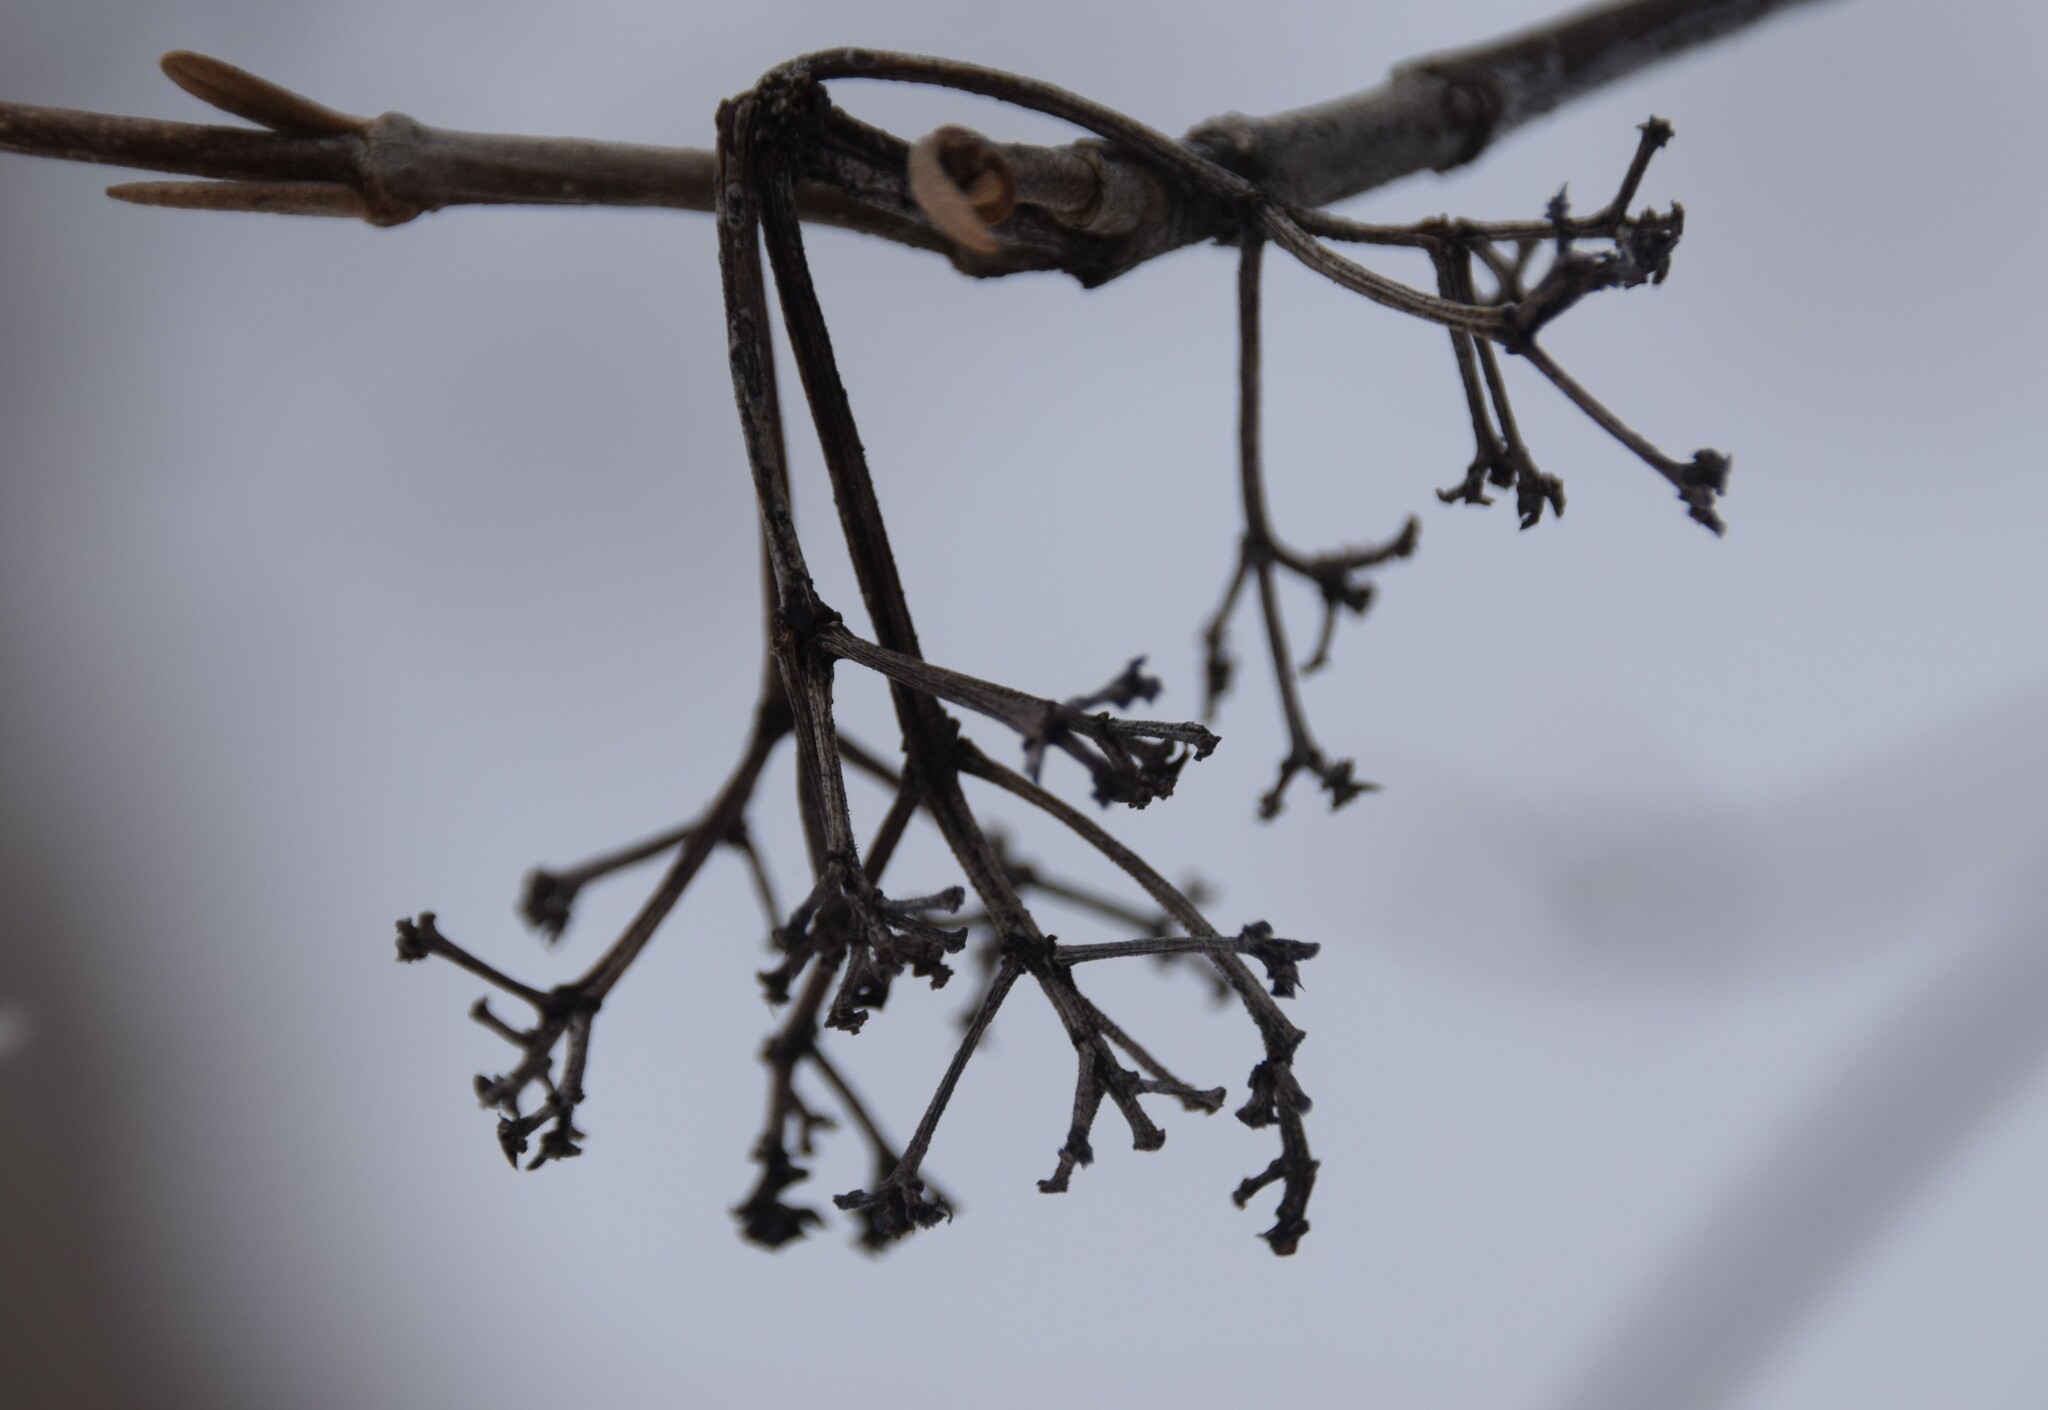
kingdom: Plantae
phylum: Tracheophyta
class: Magnoliopsida
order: Dipsacales
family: Viburnaceae
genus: Viburnum
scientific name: Viburnum cassinoides
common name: Swamp haw
